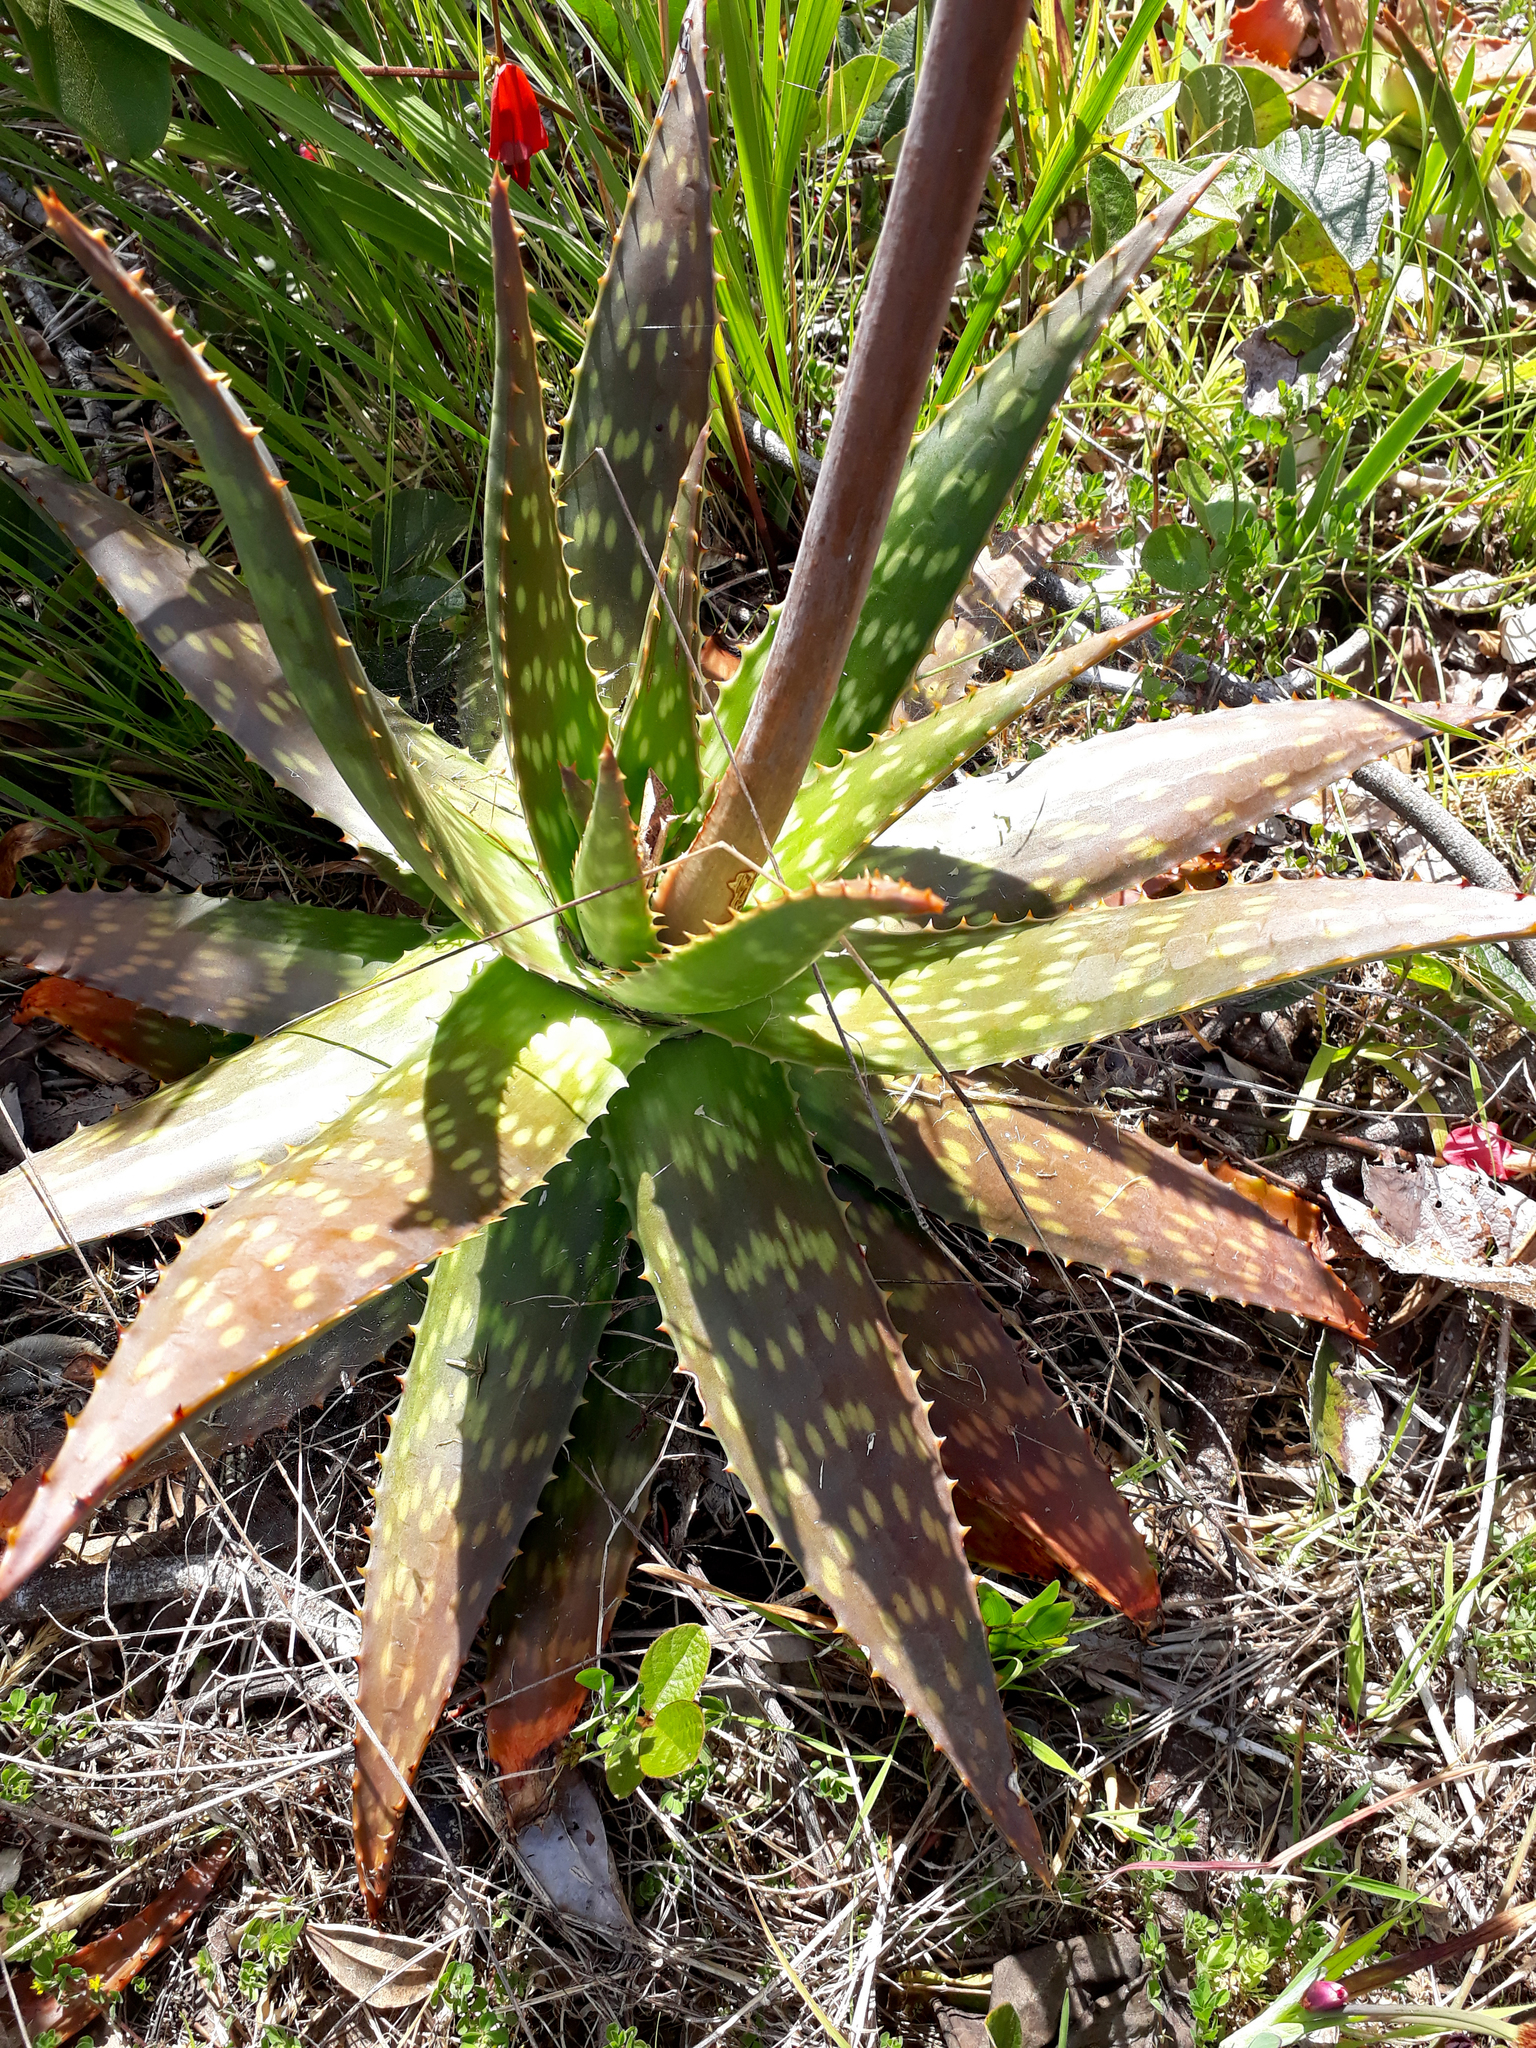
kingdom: Plantae
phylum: Tracheophyta
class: Liliopsida
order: Asparagales
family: Asphodelaceae
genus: Aloe
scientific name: Aloe maculata
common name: Broadleaf aloe
